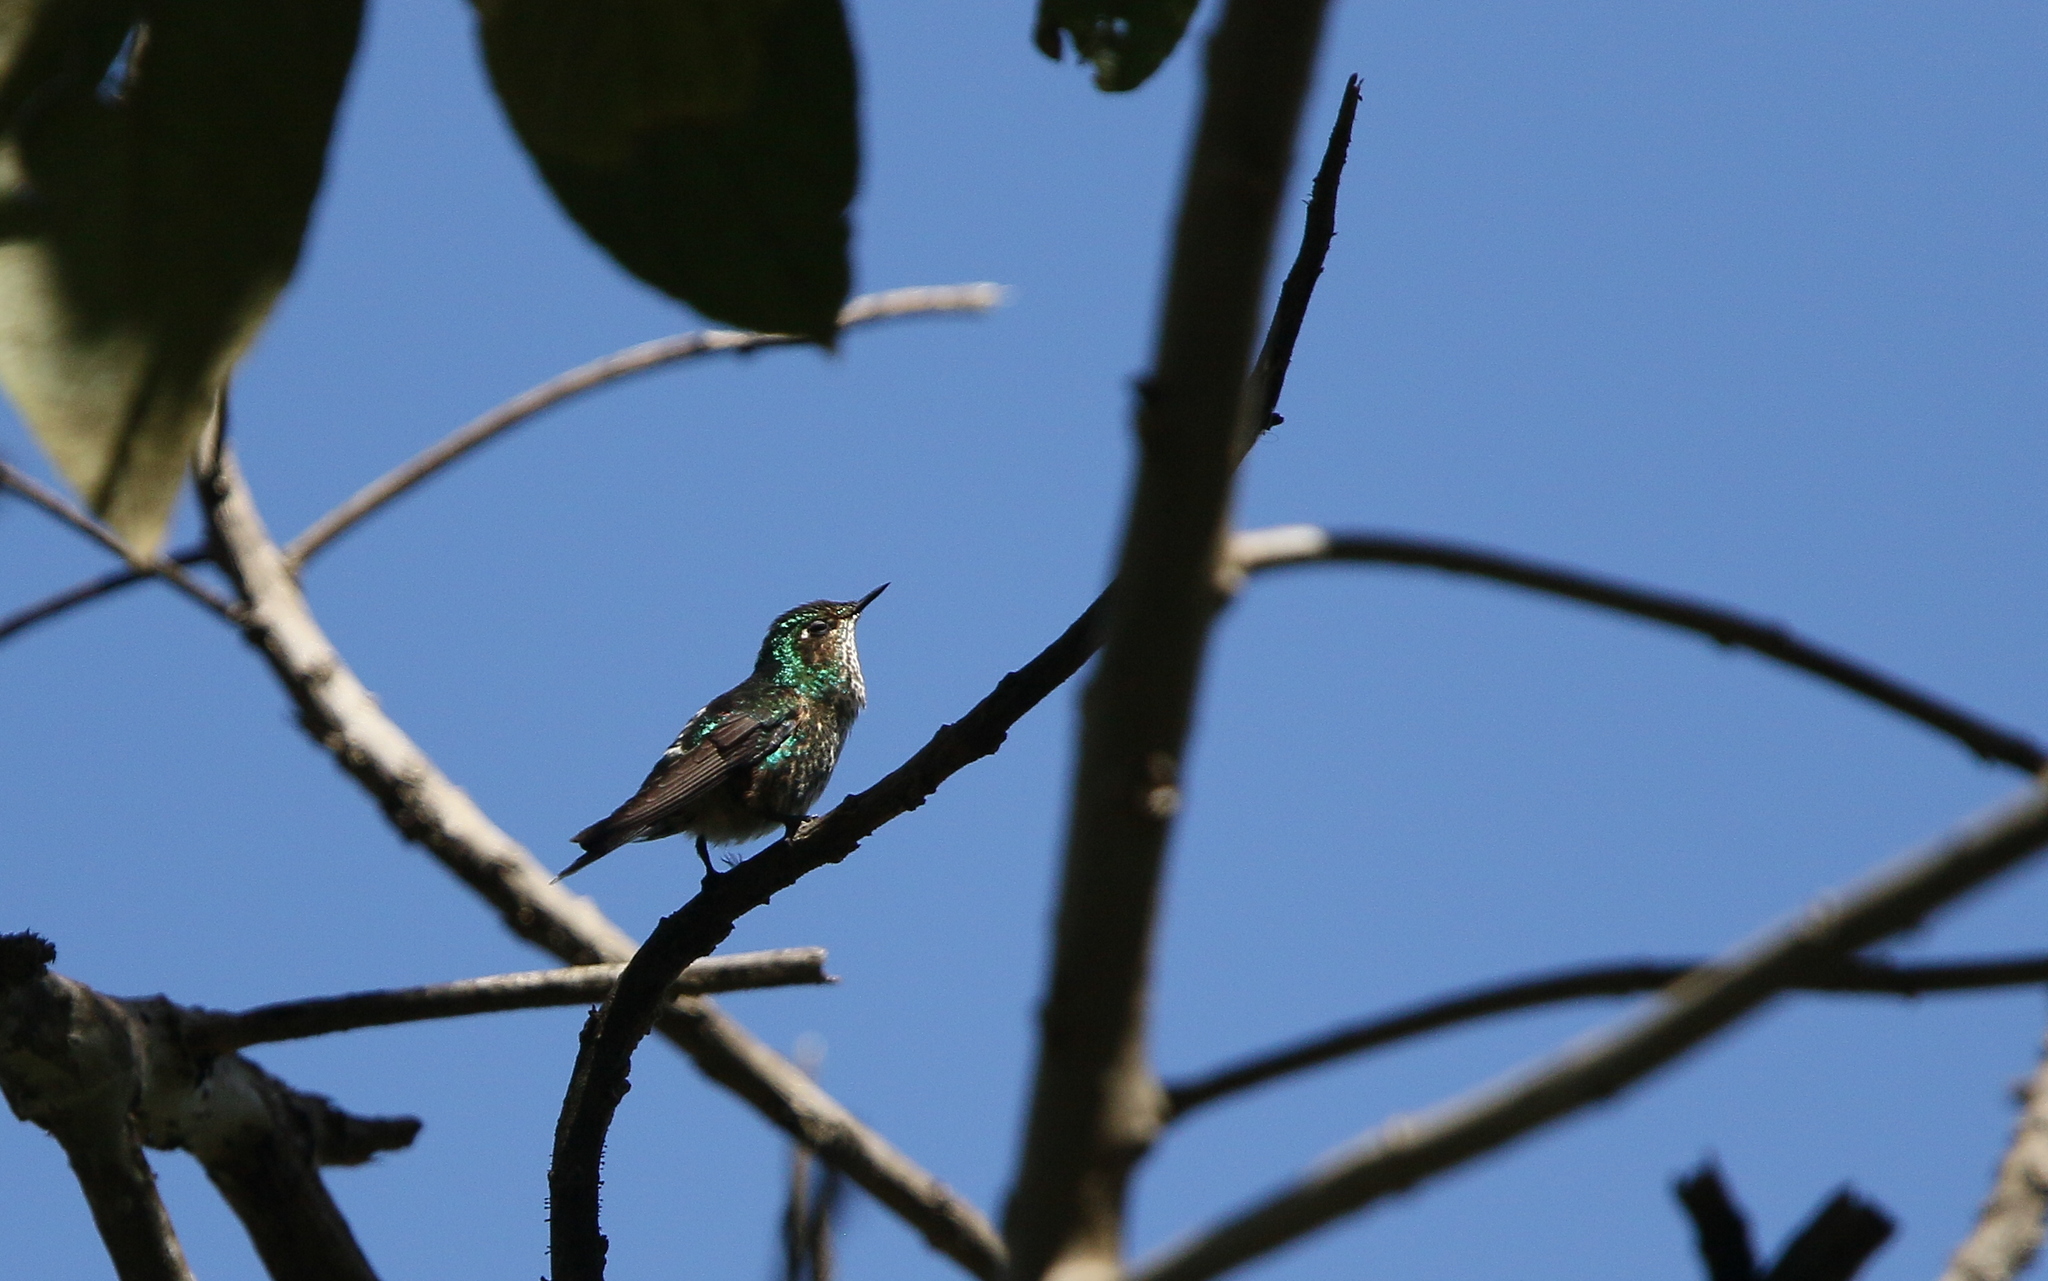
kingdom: Animalia
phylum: Chordata
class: Aves
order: Apodiformes
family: Trochilidae
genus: Ramphomicron
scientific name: Ramphomicron microrhynchum
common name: Purple-backed thornbill
